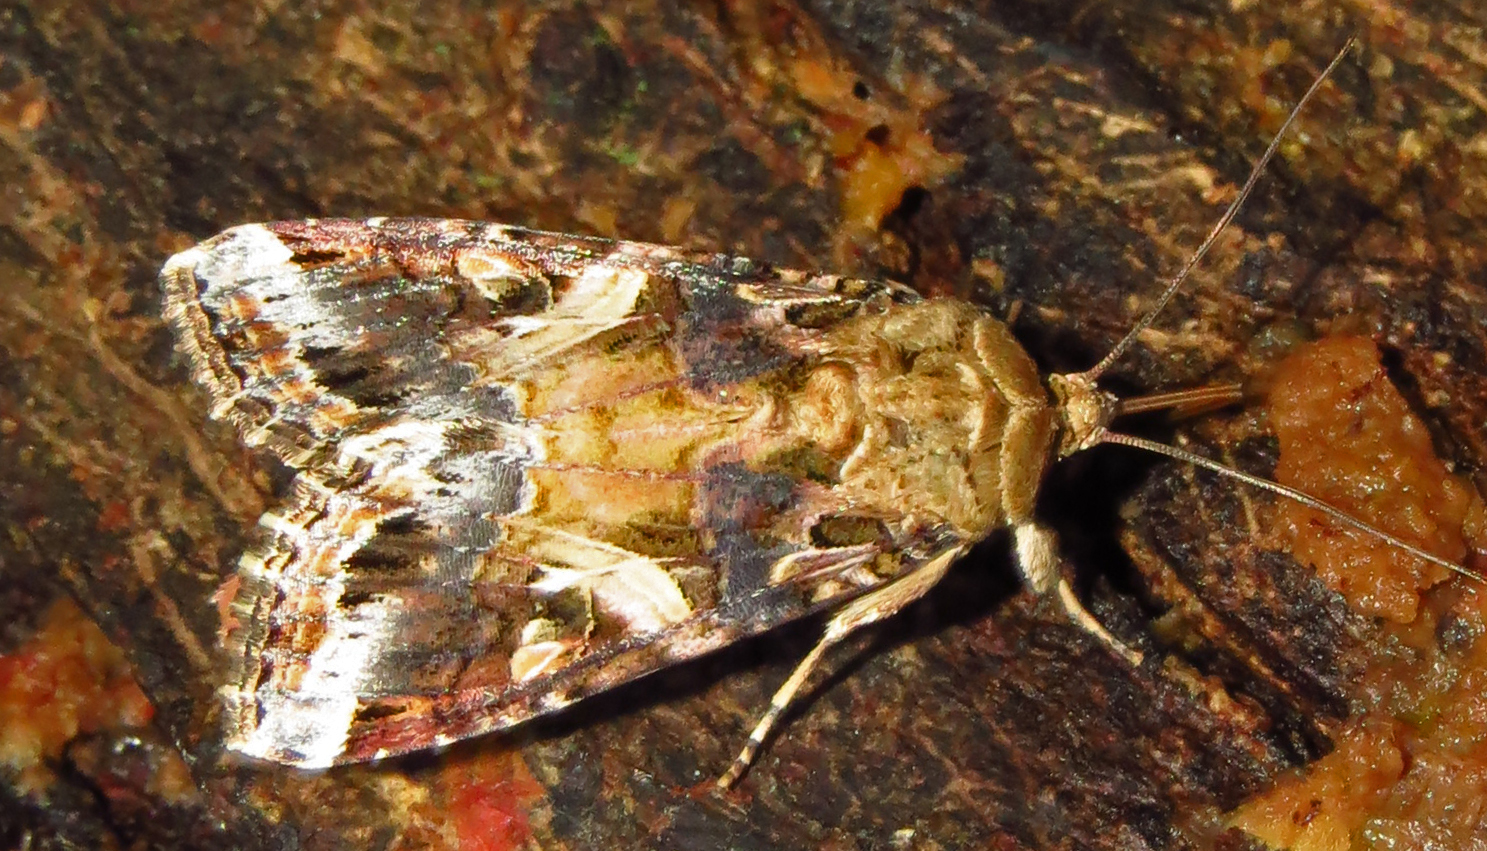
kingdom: Animalia
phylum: Arthropoda
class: Insecta
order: Lepidoptera
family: Noctuidae
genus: Spodoptera
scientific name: Spodoptera ornithogalli
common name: Yellow-striped armyworm
